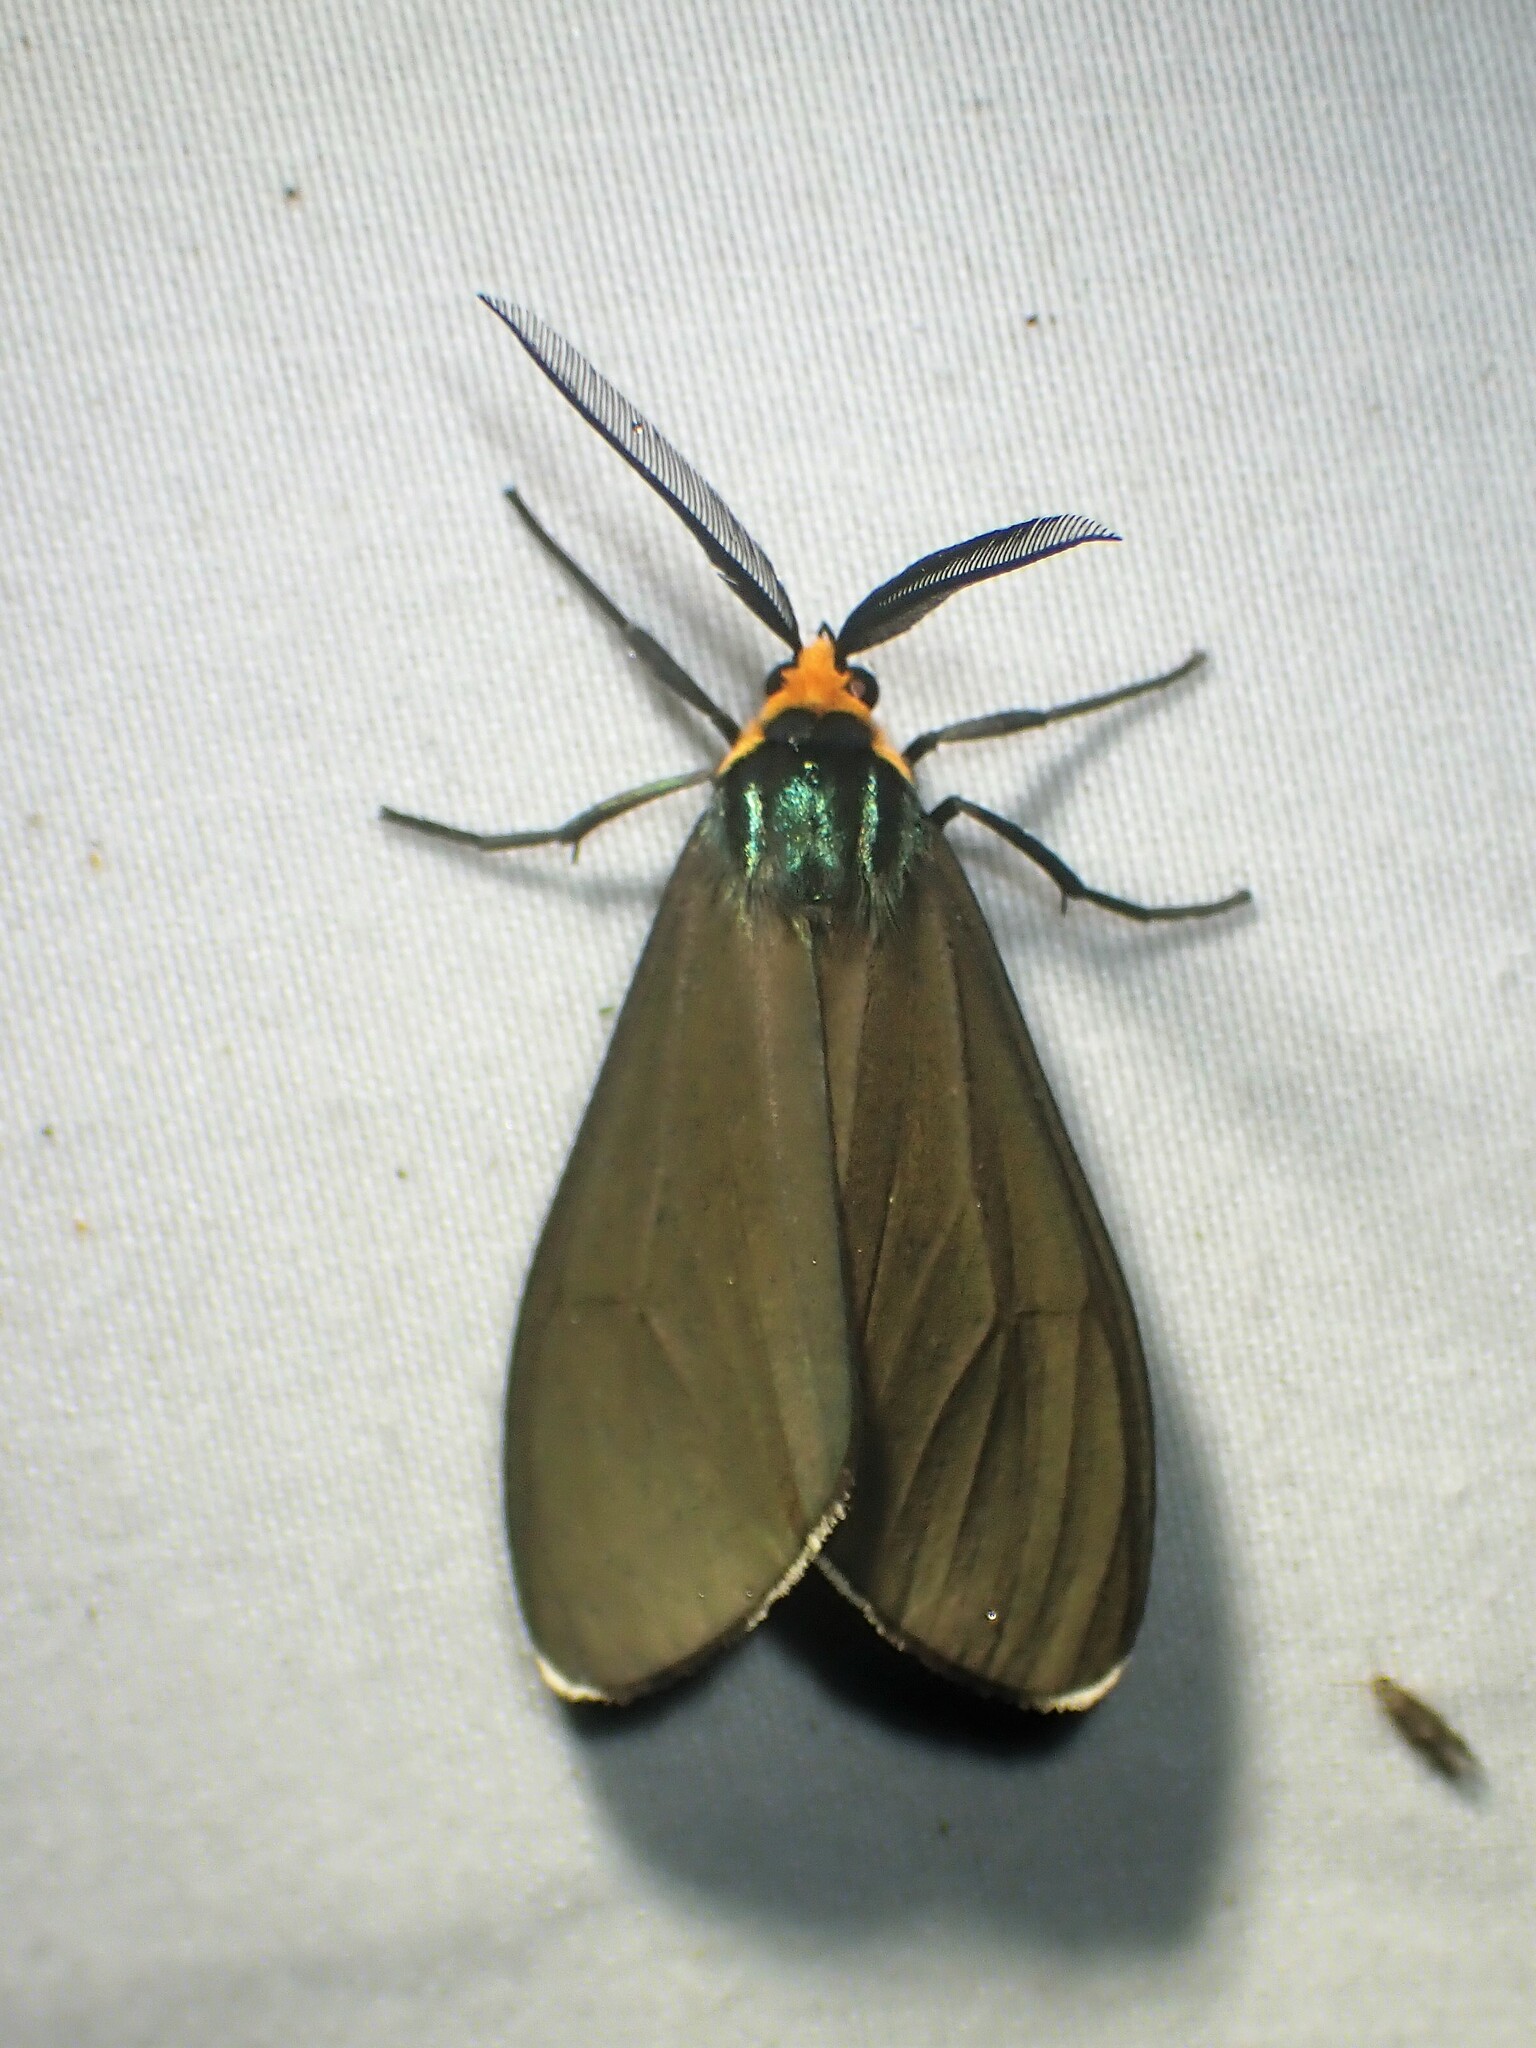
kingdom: Animalia
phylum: Arthropoda
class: Insecta
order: Lepidoptera
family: Erebidae
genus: Ctenucha
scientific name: Ctenucha virginica
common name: Virginia ctenucha moth
